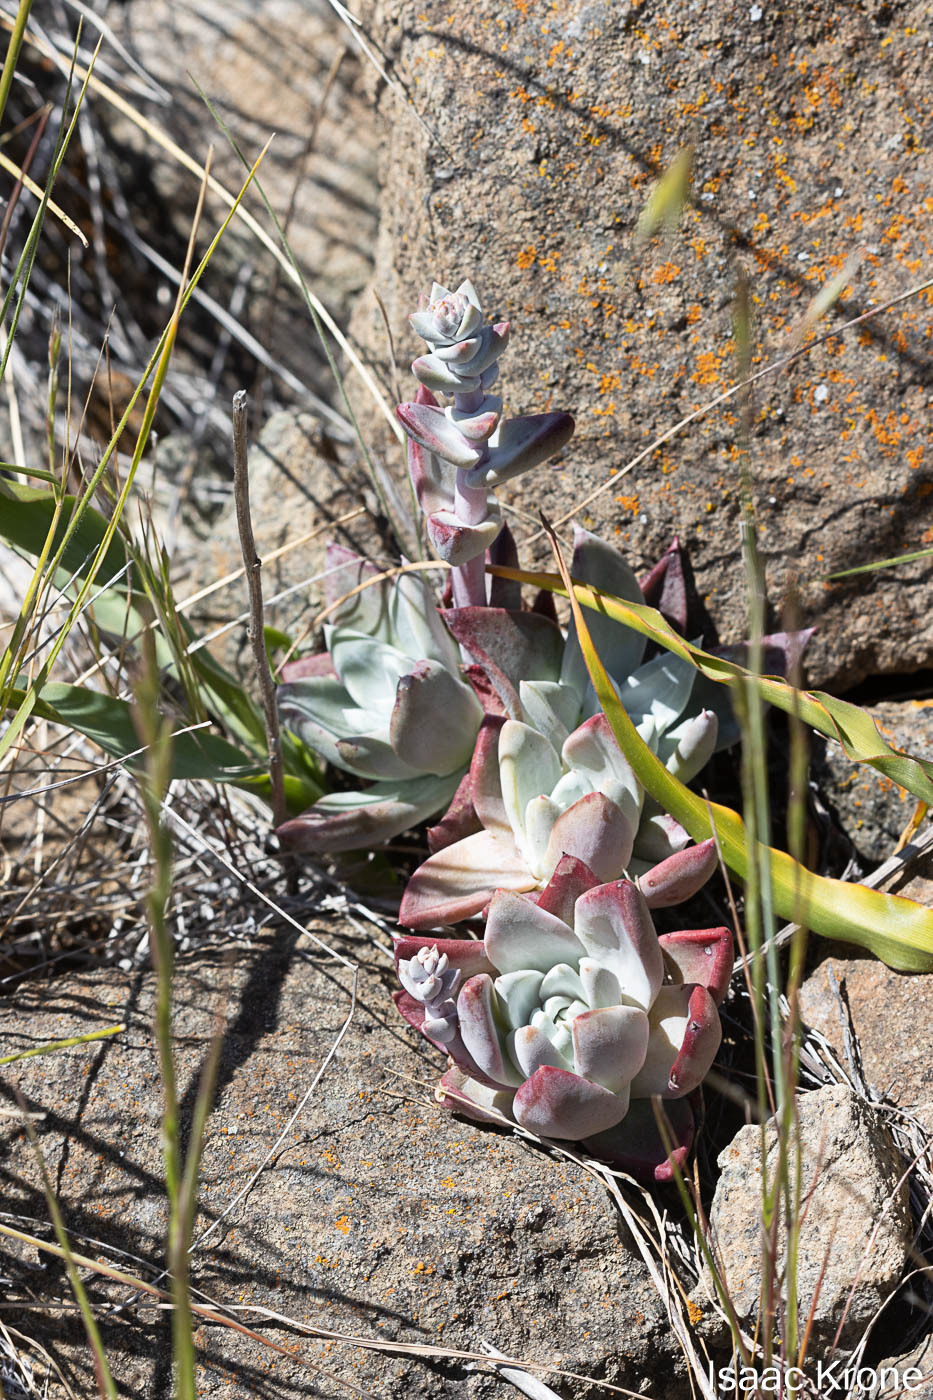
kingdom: Plantae
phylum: Tracheophyta
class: Magnoliopsida
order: Saxifragales
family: Crassulaceae
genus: Dudleya
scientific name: Dudleya farinosa
